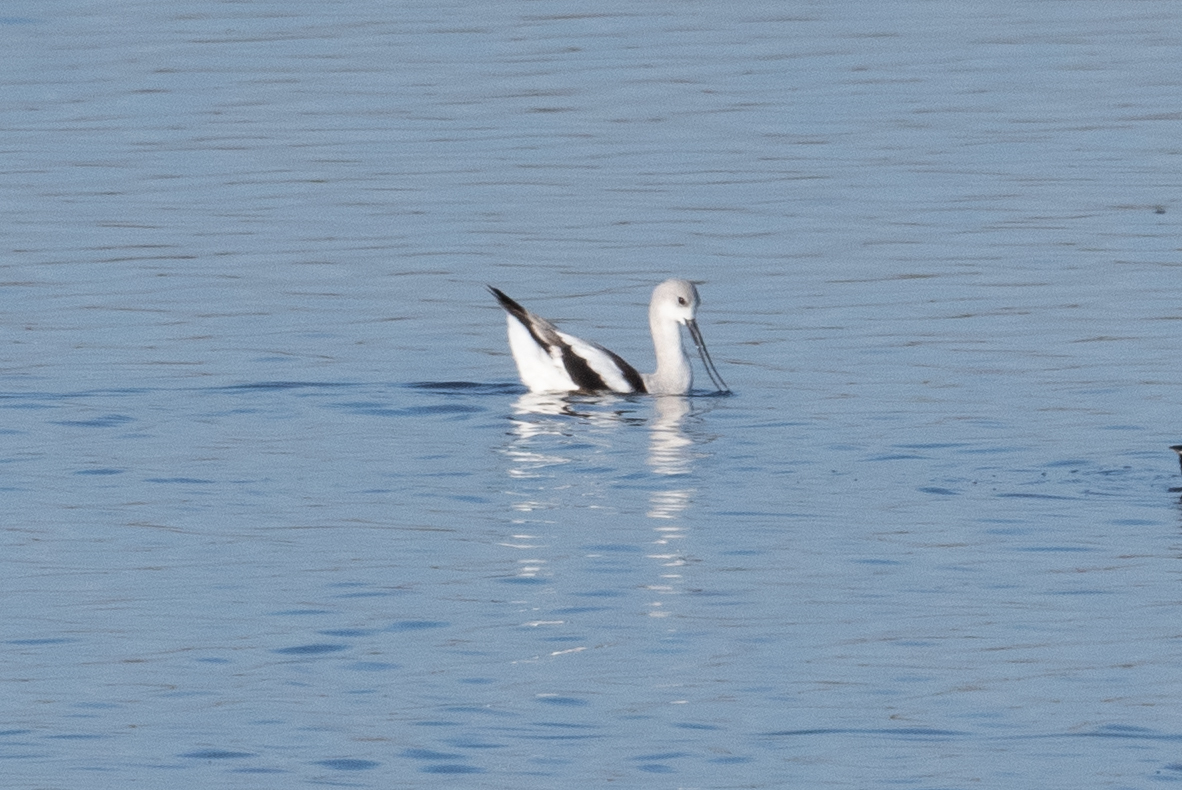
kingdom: Animalia
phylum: Chordata
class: Aves
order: Charadriiformes
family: Recurvirostridae
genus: Recurvirostra
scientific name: Recurvirostra americana
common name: American avocet
